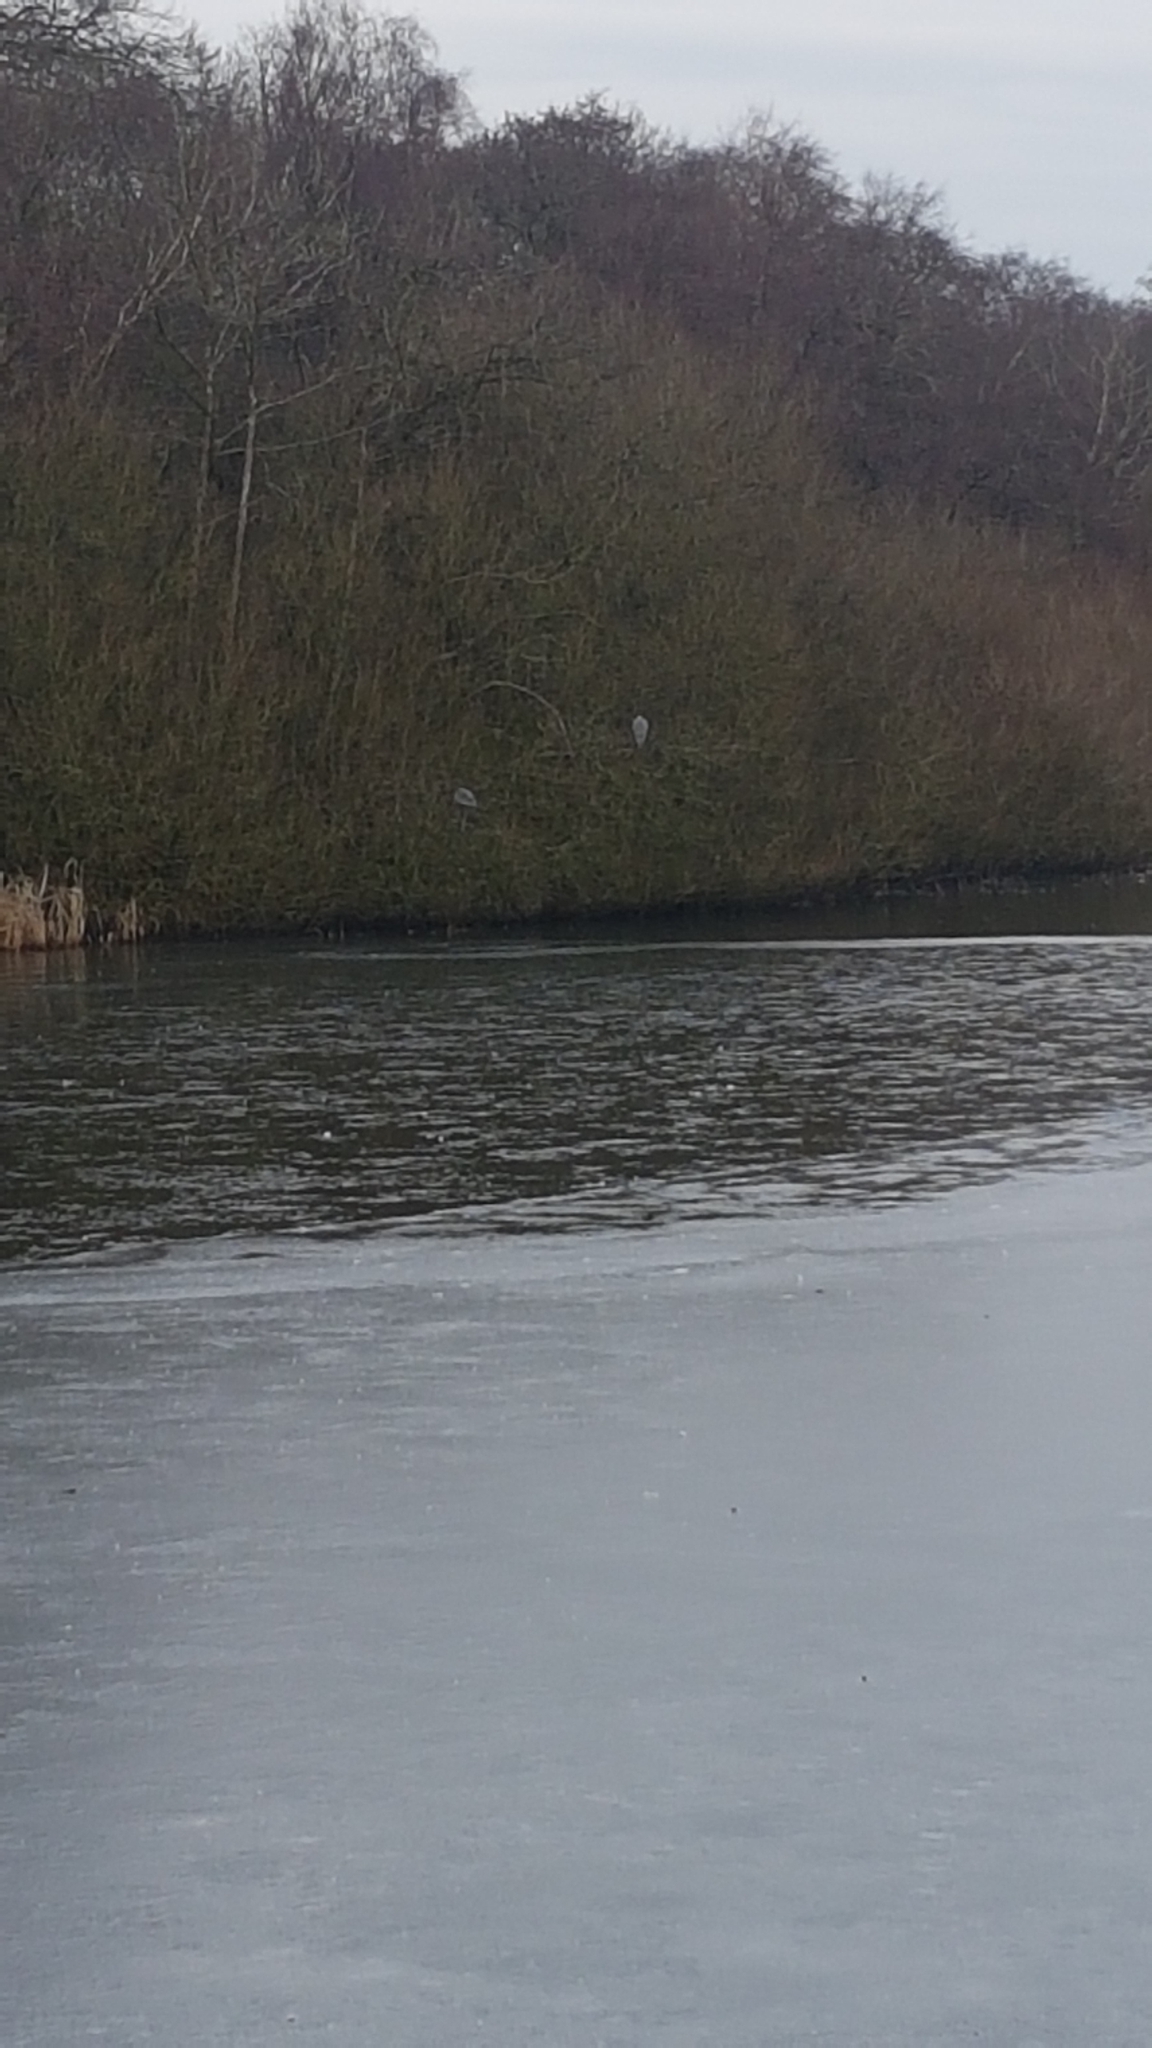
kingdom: Animalia
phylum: Chordata
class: Aves
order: Pelecaniformes
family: Ardeidae
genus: Ardea
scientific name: Ardea cinerea
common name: Grey heron
